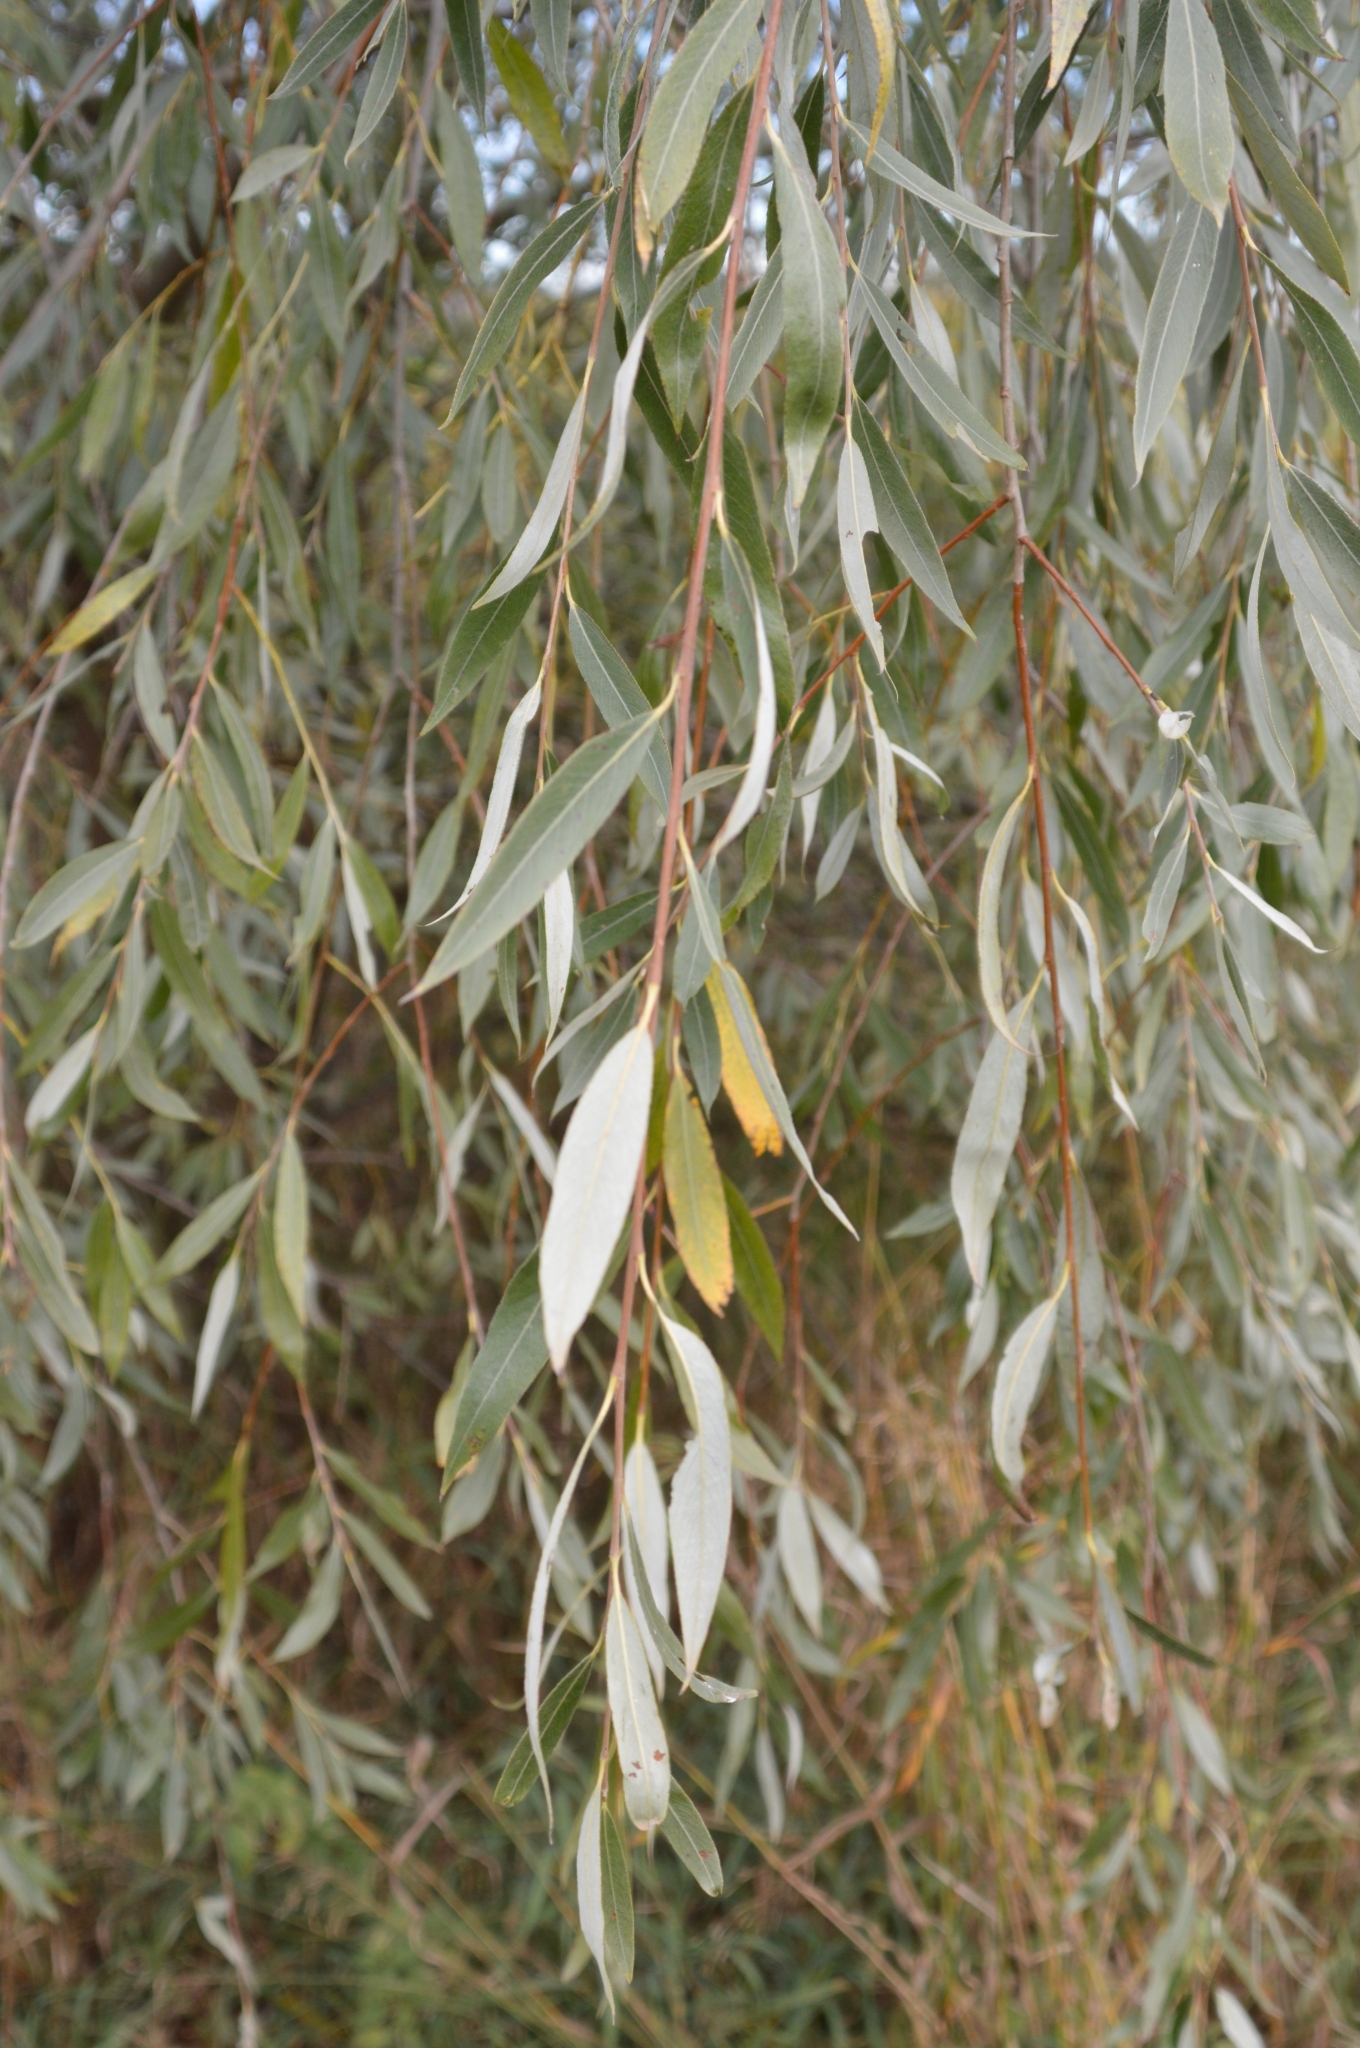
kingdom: Plantae
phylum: Tracheophyta
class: Magnoliopsida
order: Malpighiales
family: Salicaceae
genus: Salix
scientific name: Salix alba
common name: White willow
